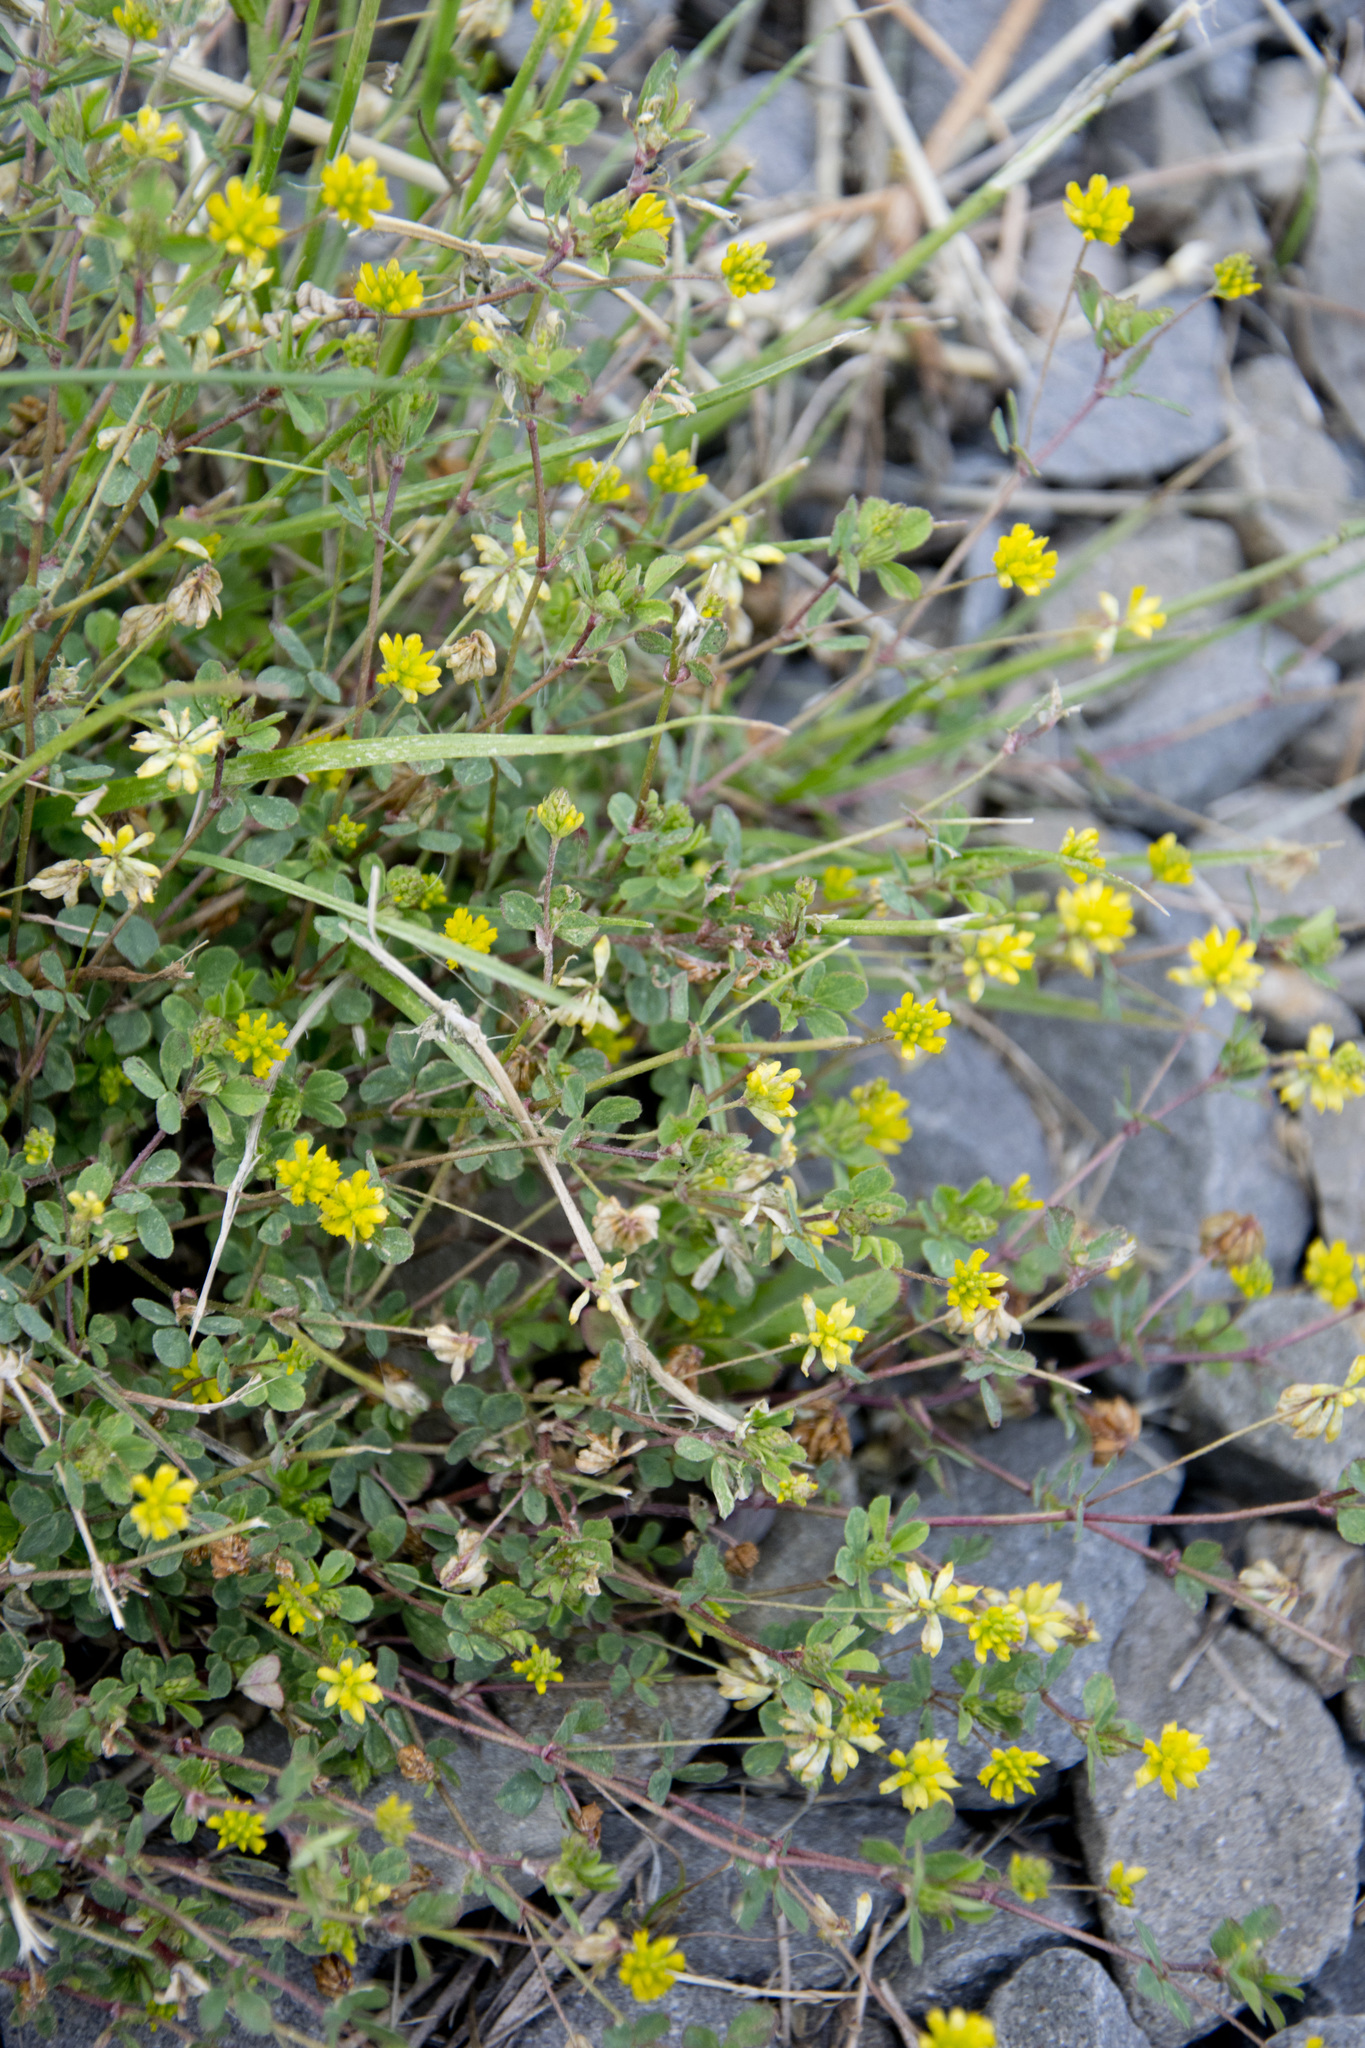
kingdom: Plantae
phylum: Tracheophyta
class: Magnoliopsida
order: Fabales
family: Fabaceae
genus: Trifolium
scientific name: Trifolium dubium
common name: Suckling clover
